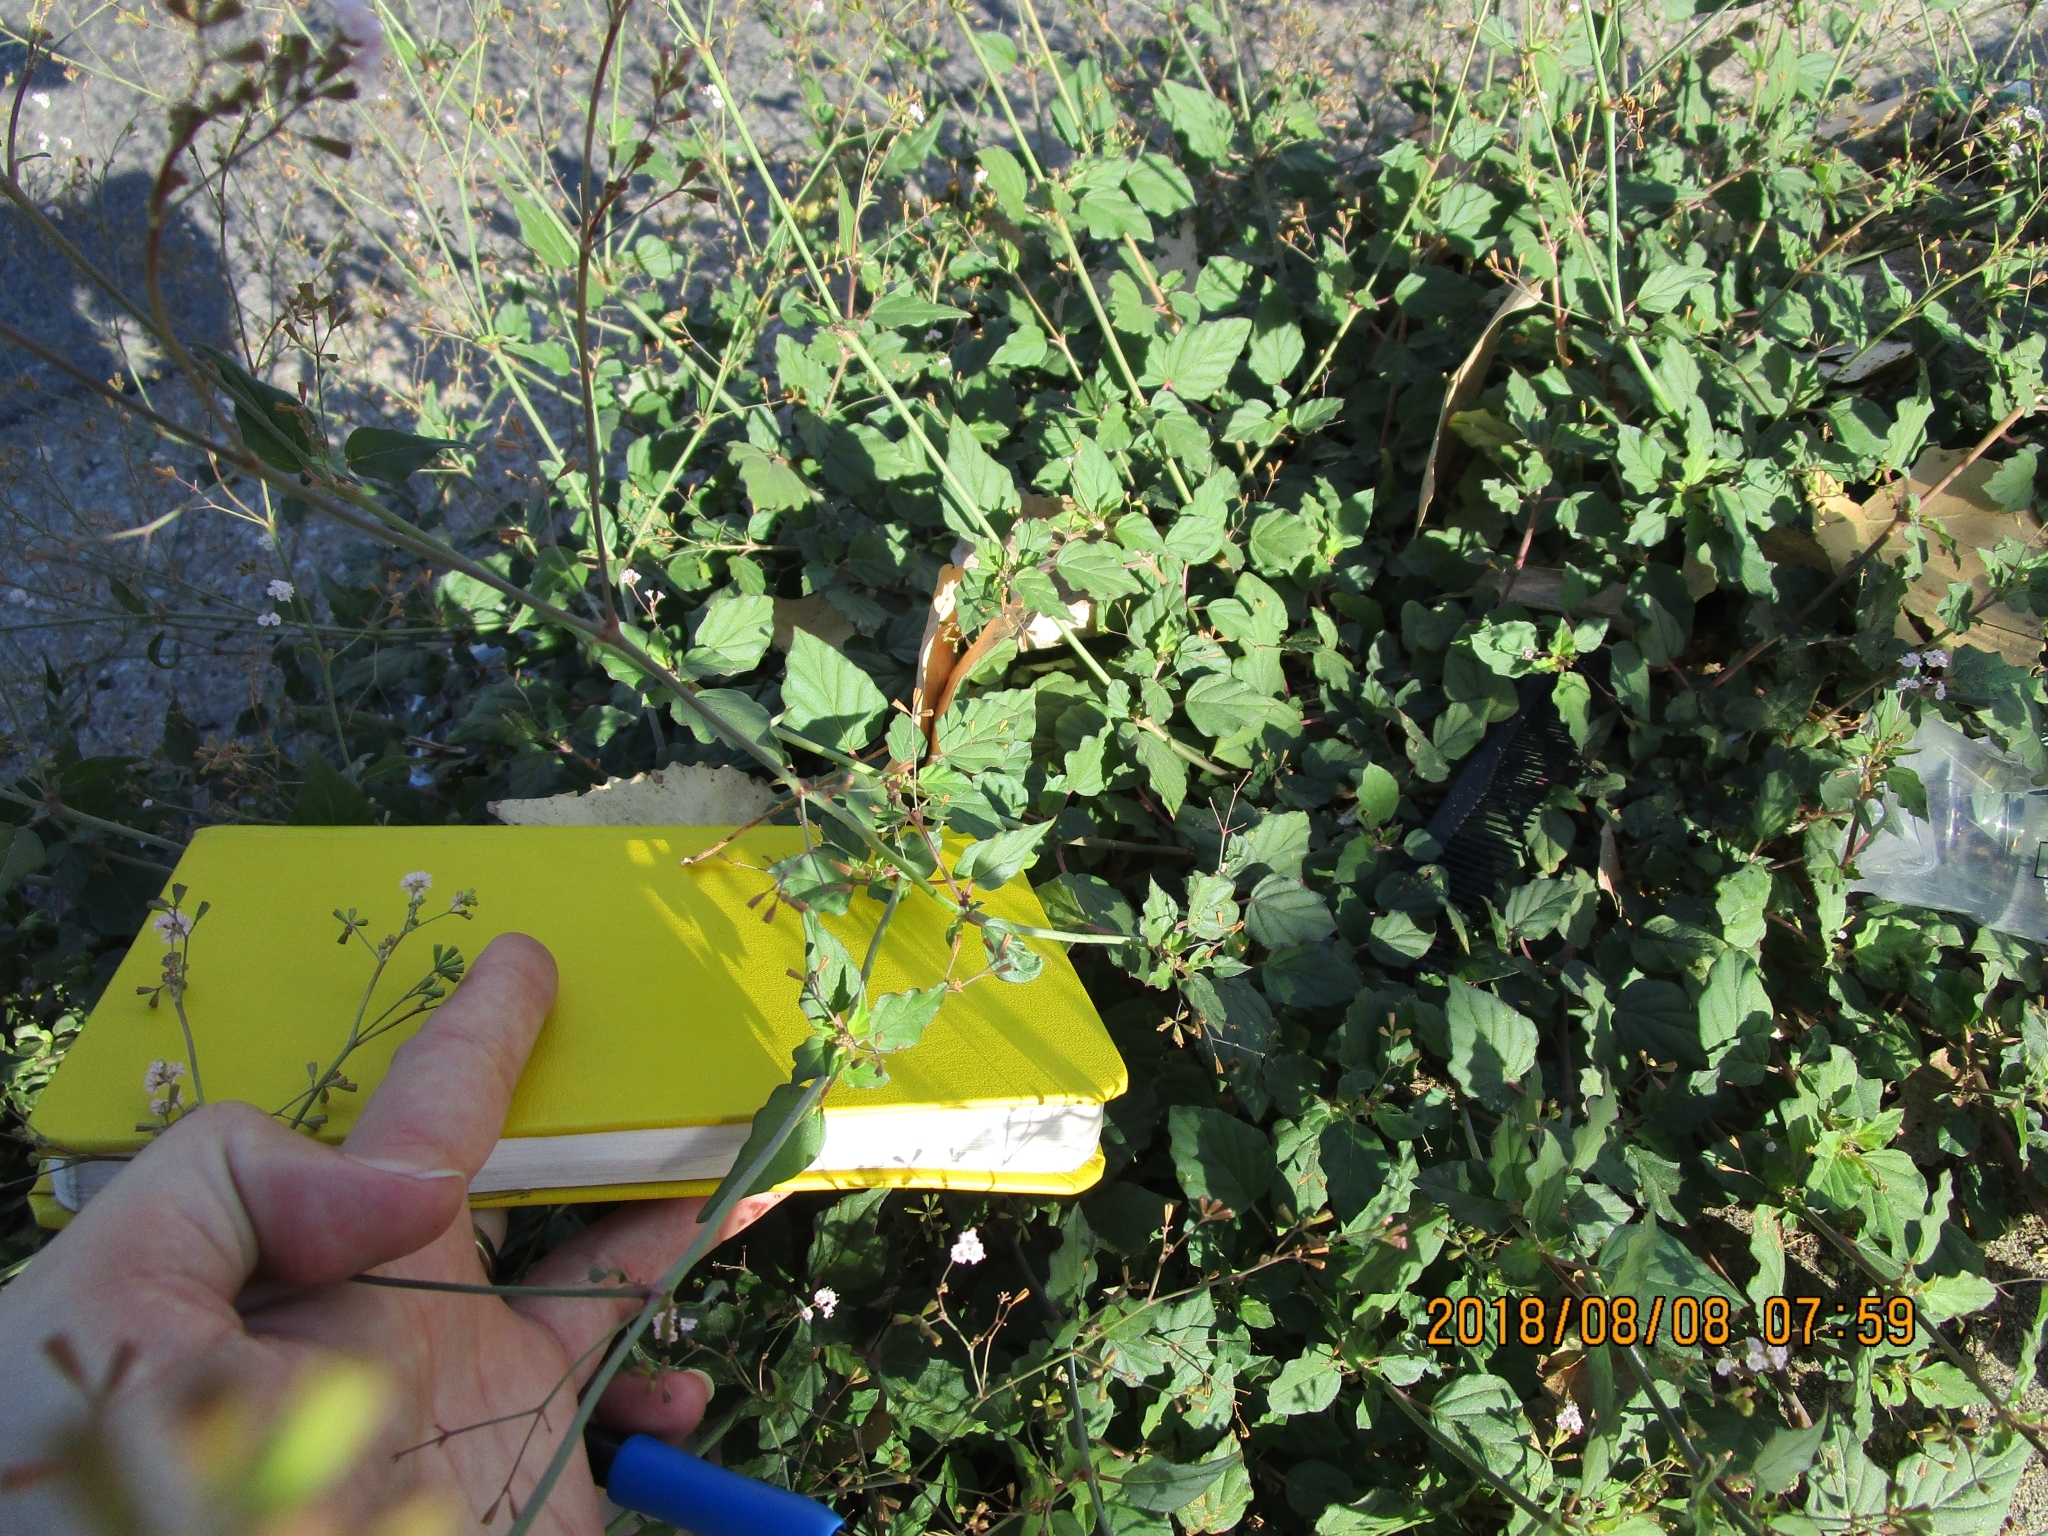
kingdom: Plantae
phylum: Tracheophyta
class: Magnoliopsida
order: Caryophyllales
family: Nyctaginaceae
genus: Boerhavia
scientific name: Boerhavia erecta
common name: Erect spiderling
